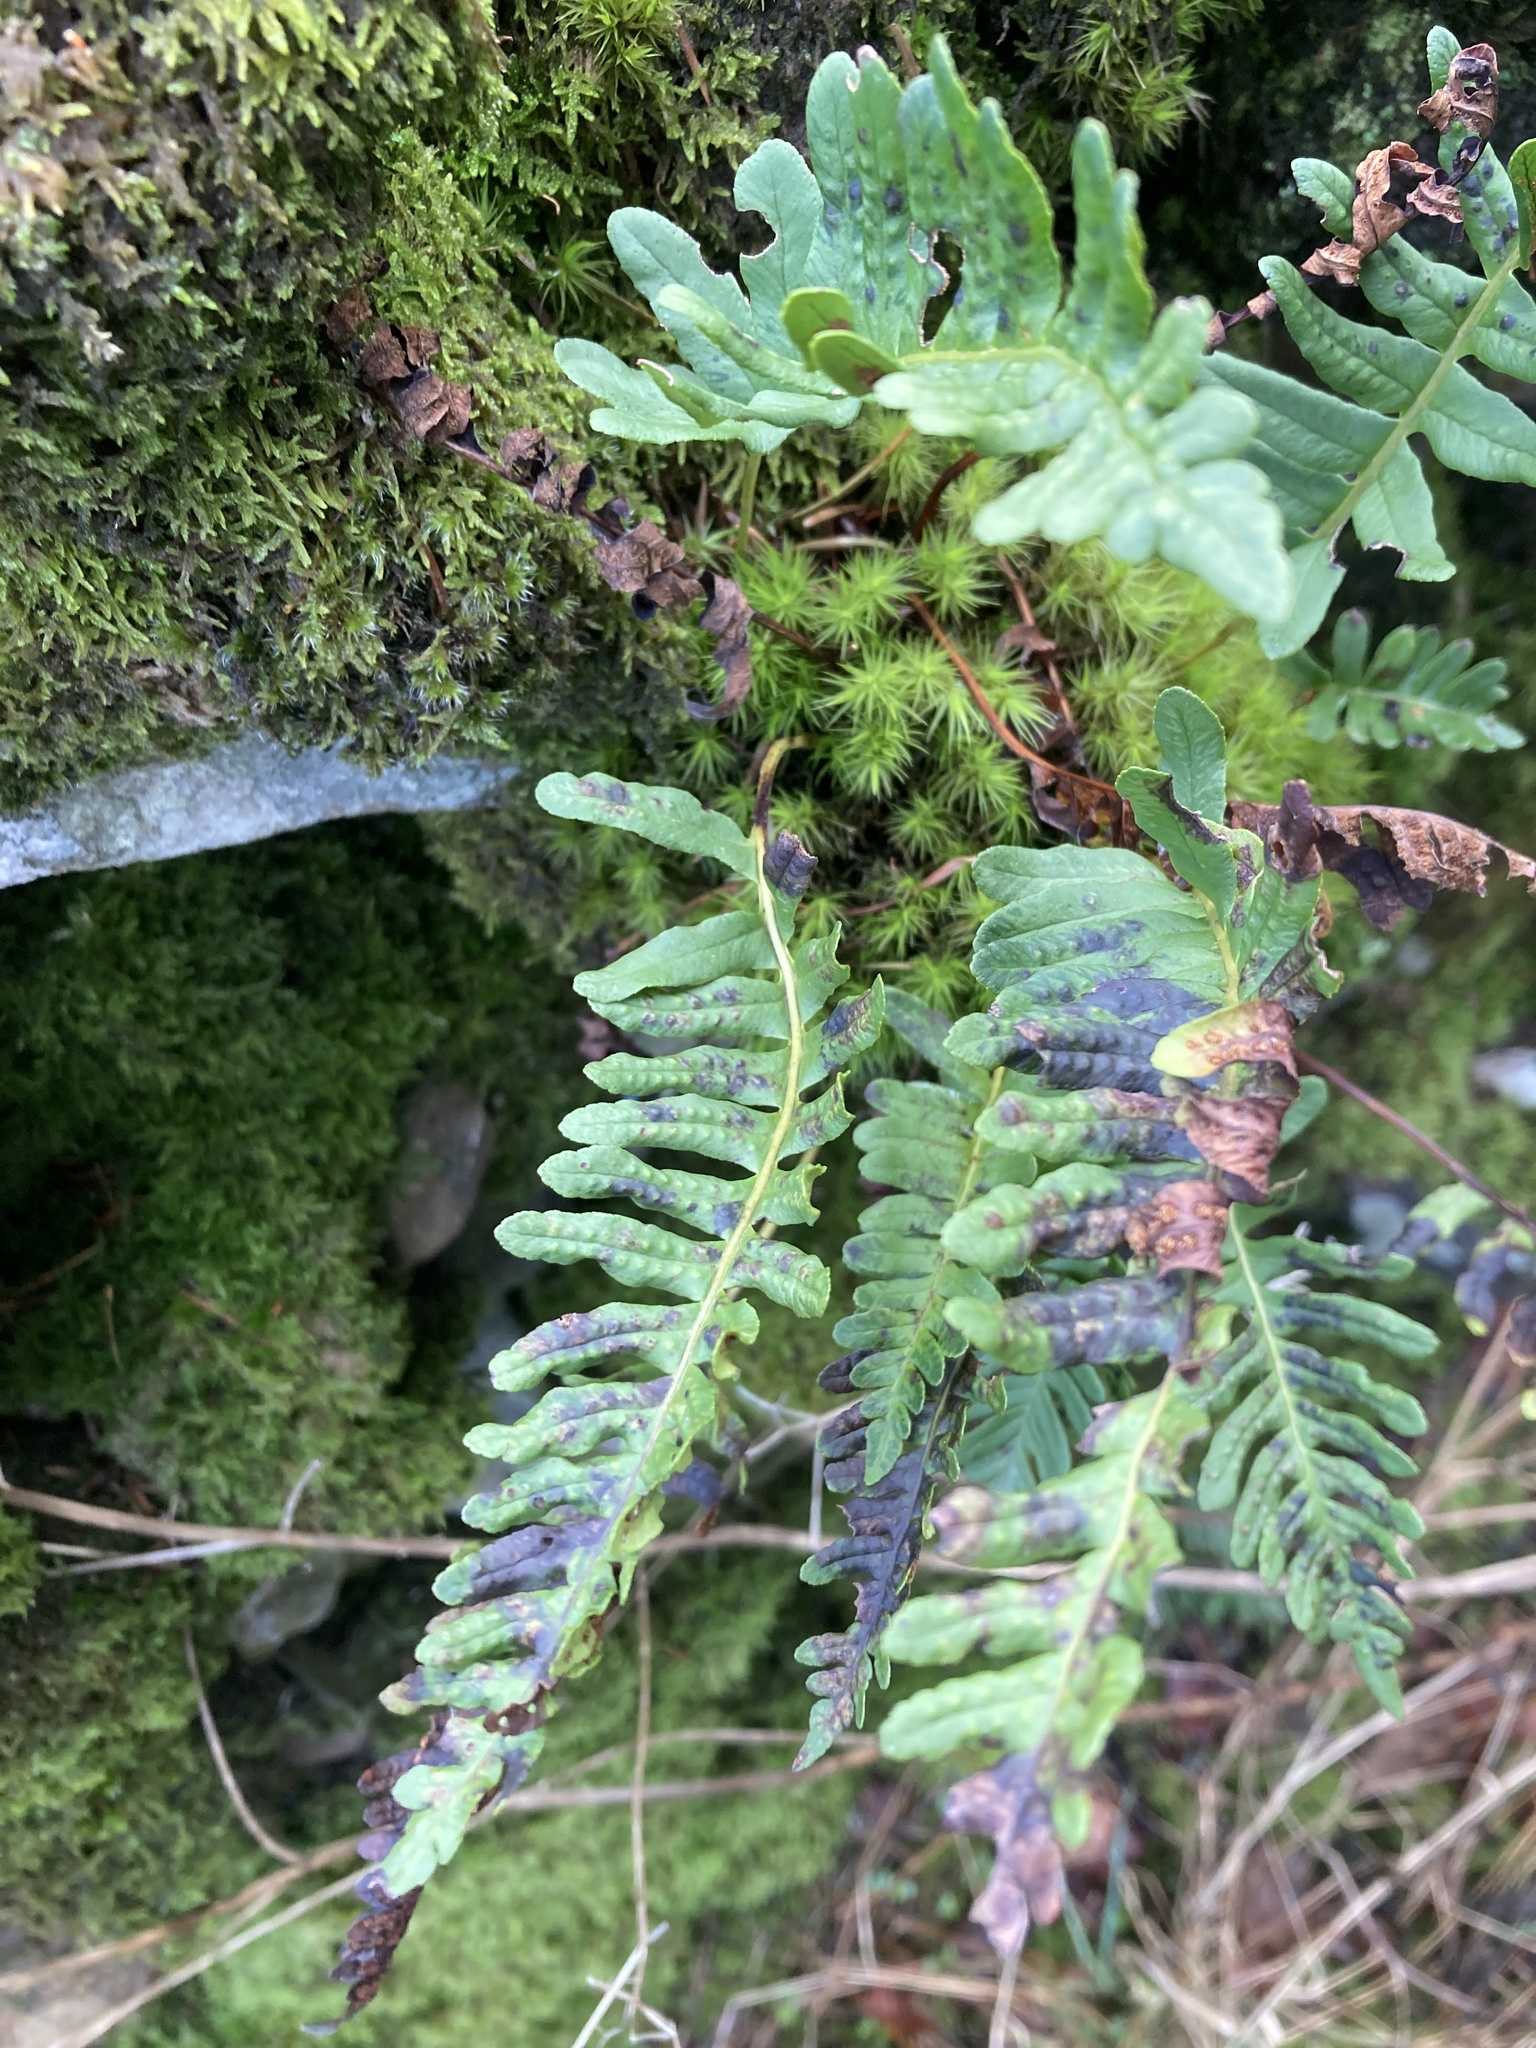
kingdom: Plantae
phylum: Tracheophyta
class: Polypodiopsida
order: Polypodiales
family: Polypodiaceae
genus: Polypodium
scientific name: Polypodium vulgare
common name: Common polypody
